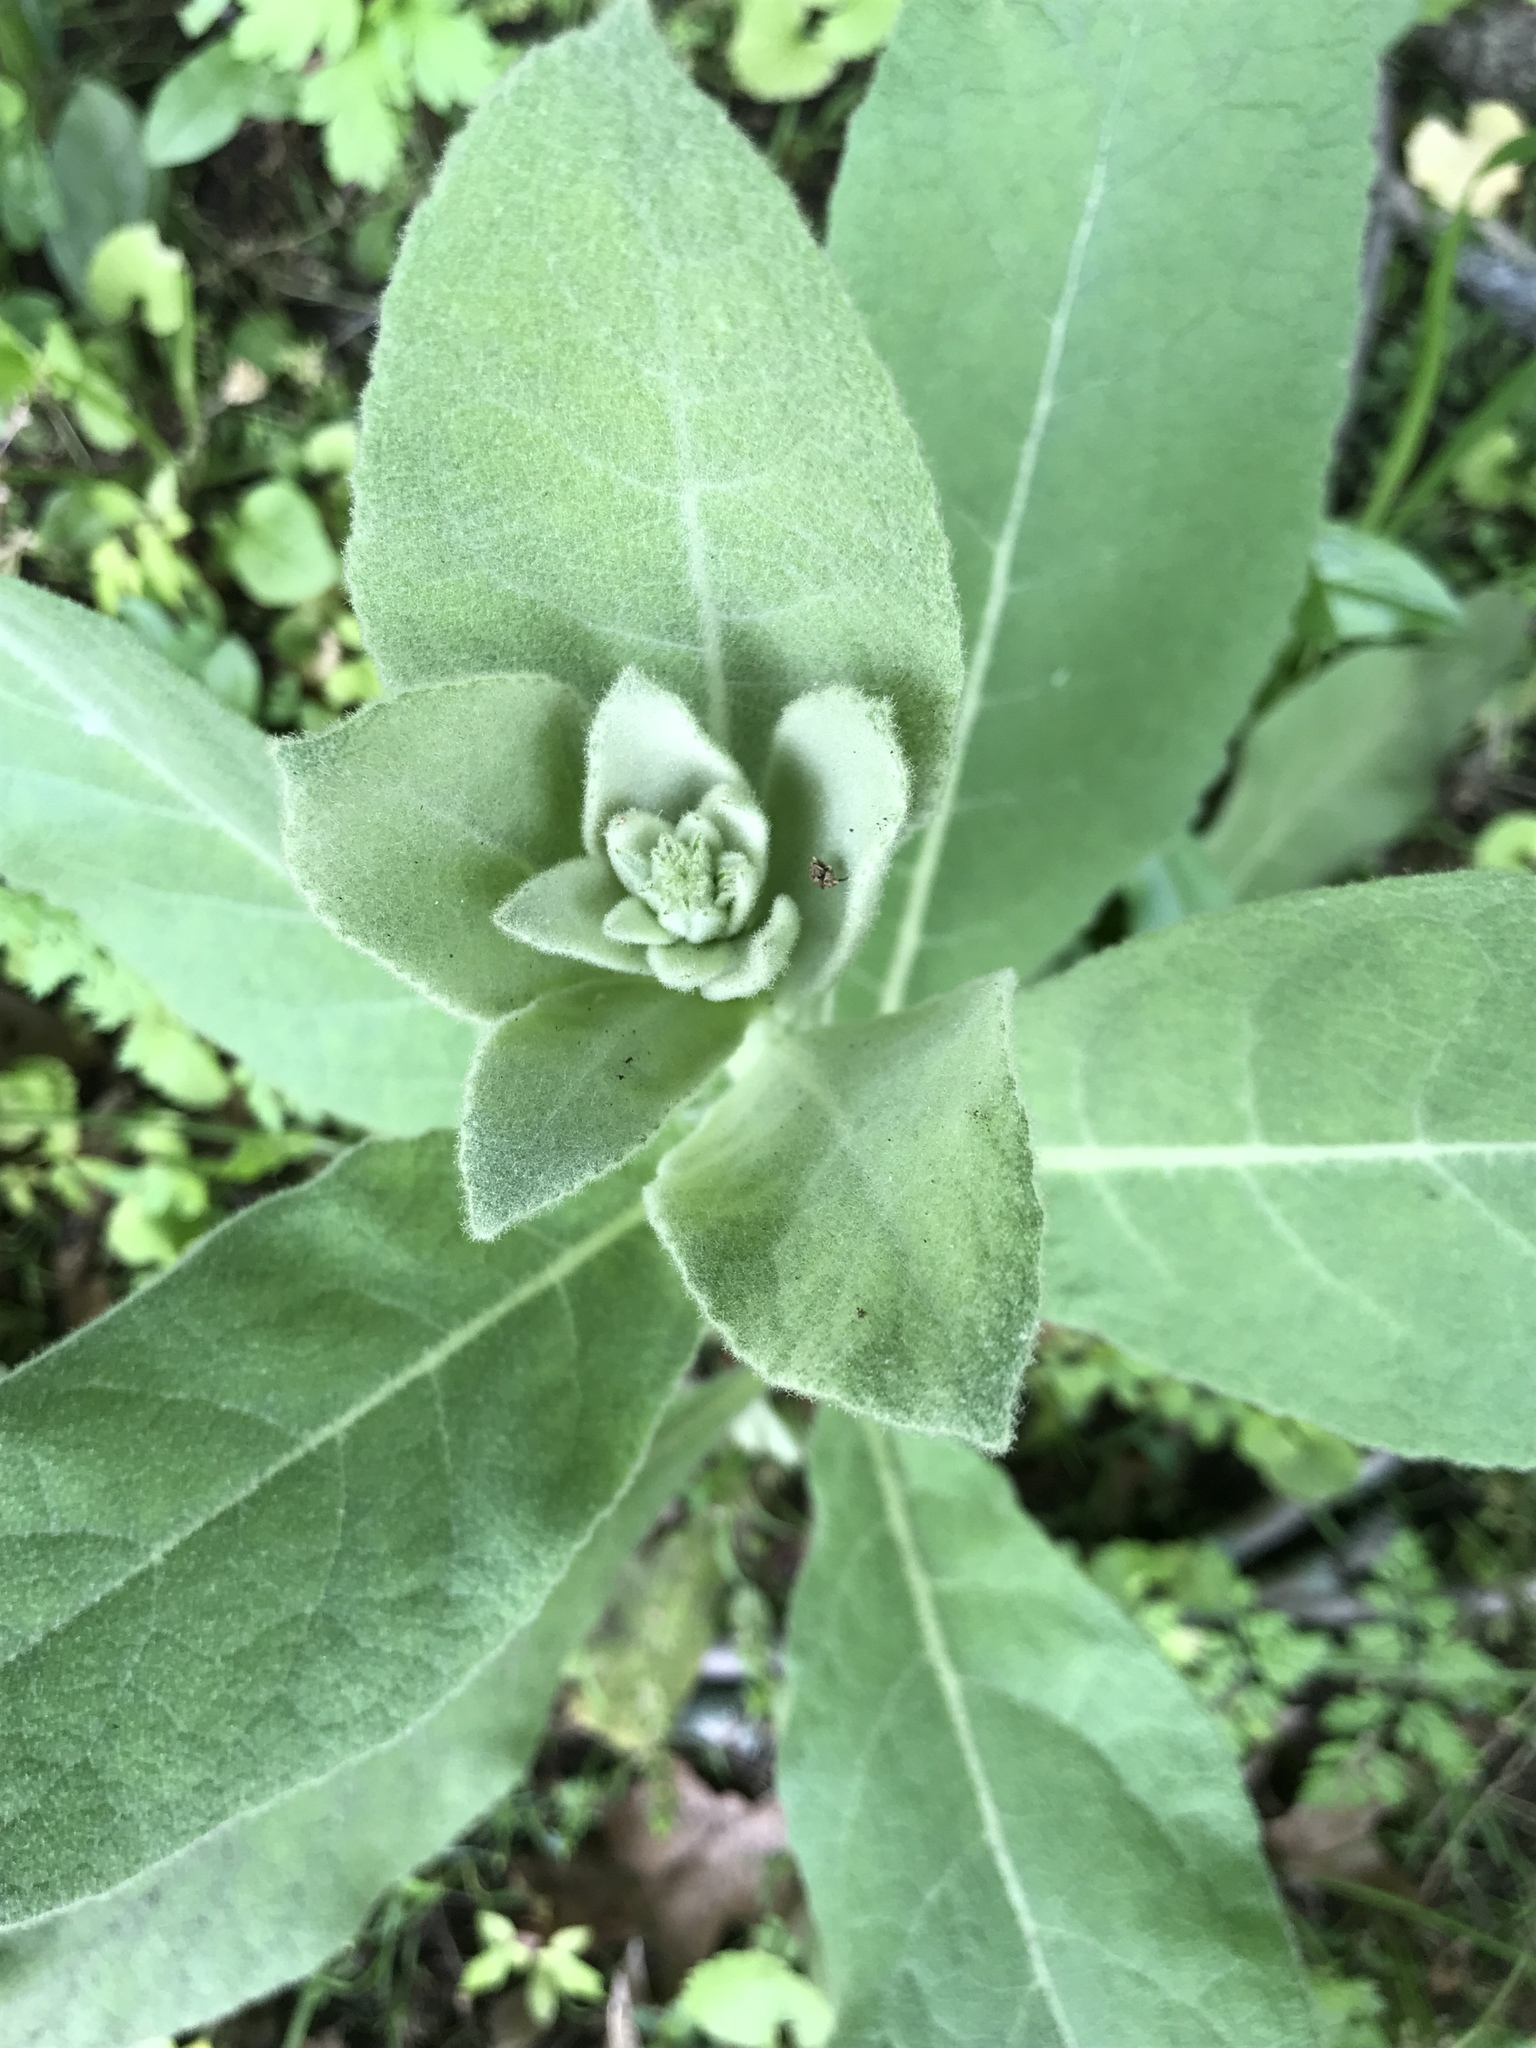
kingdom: Plantae
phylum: Tracheophyta
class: Magnoliopsida
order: Lamiales
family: Scrophulariaceae
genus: Verbascum
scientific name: Verbascum thapsus
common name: Common mullein
